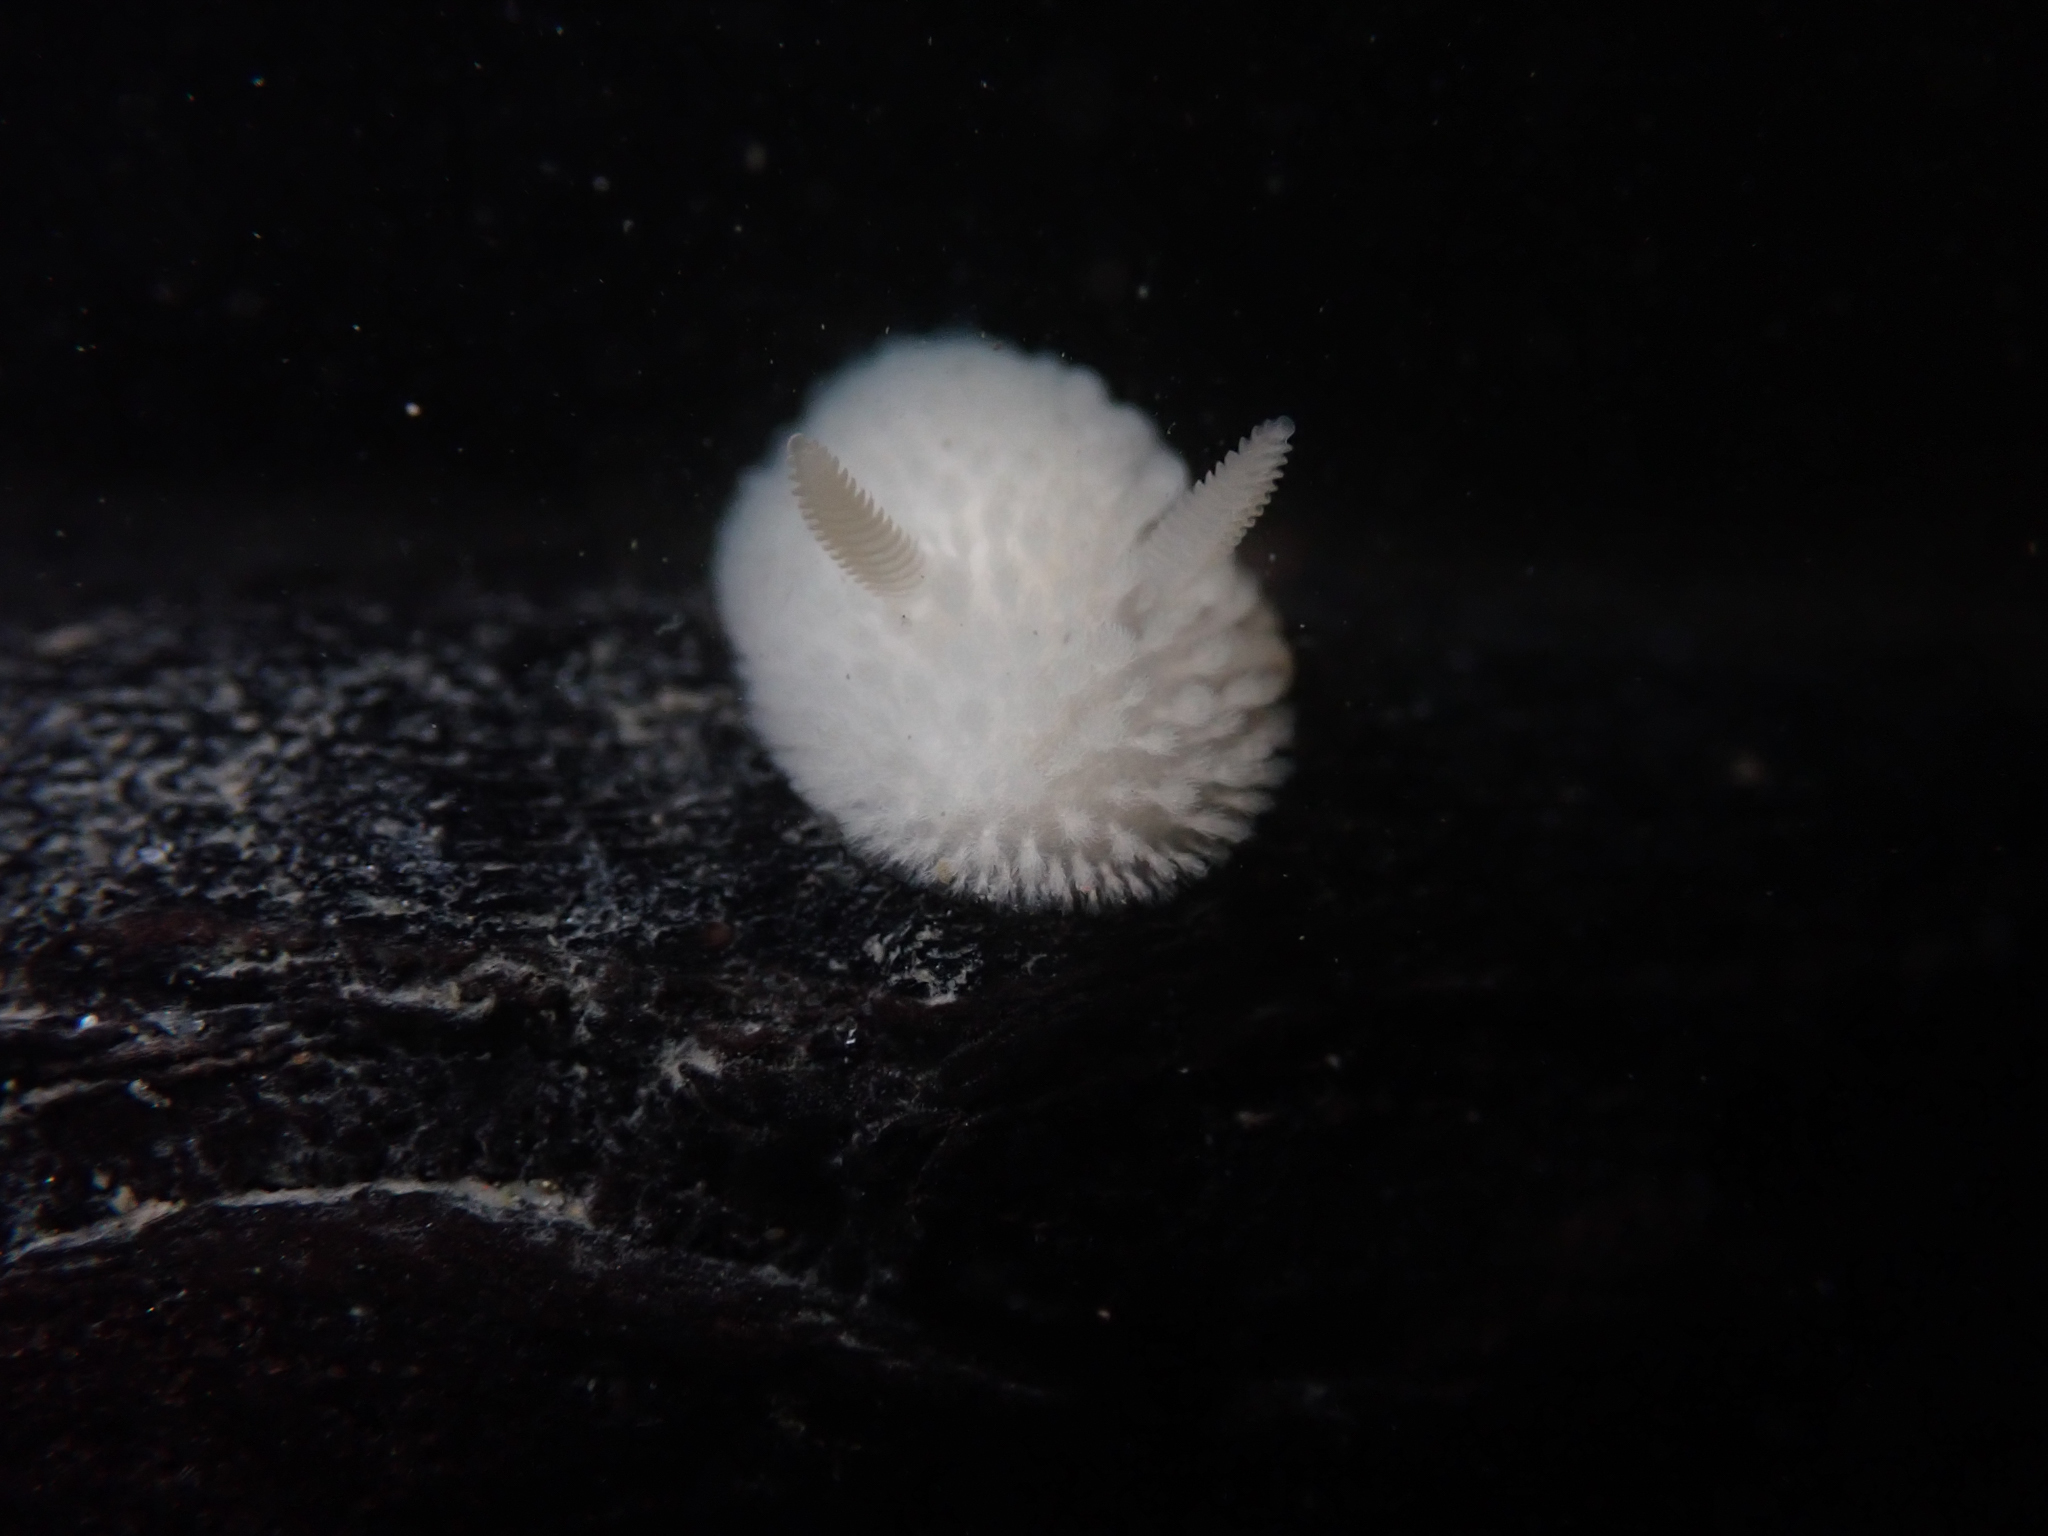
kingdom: Animalia
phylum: Mollusca
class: Gastropoda
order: Nudibranchia
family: Onchidorididae
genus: Onchidoris
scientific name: Onchidoris evincta
